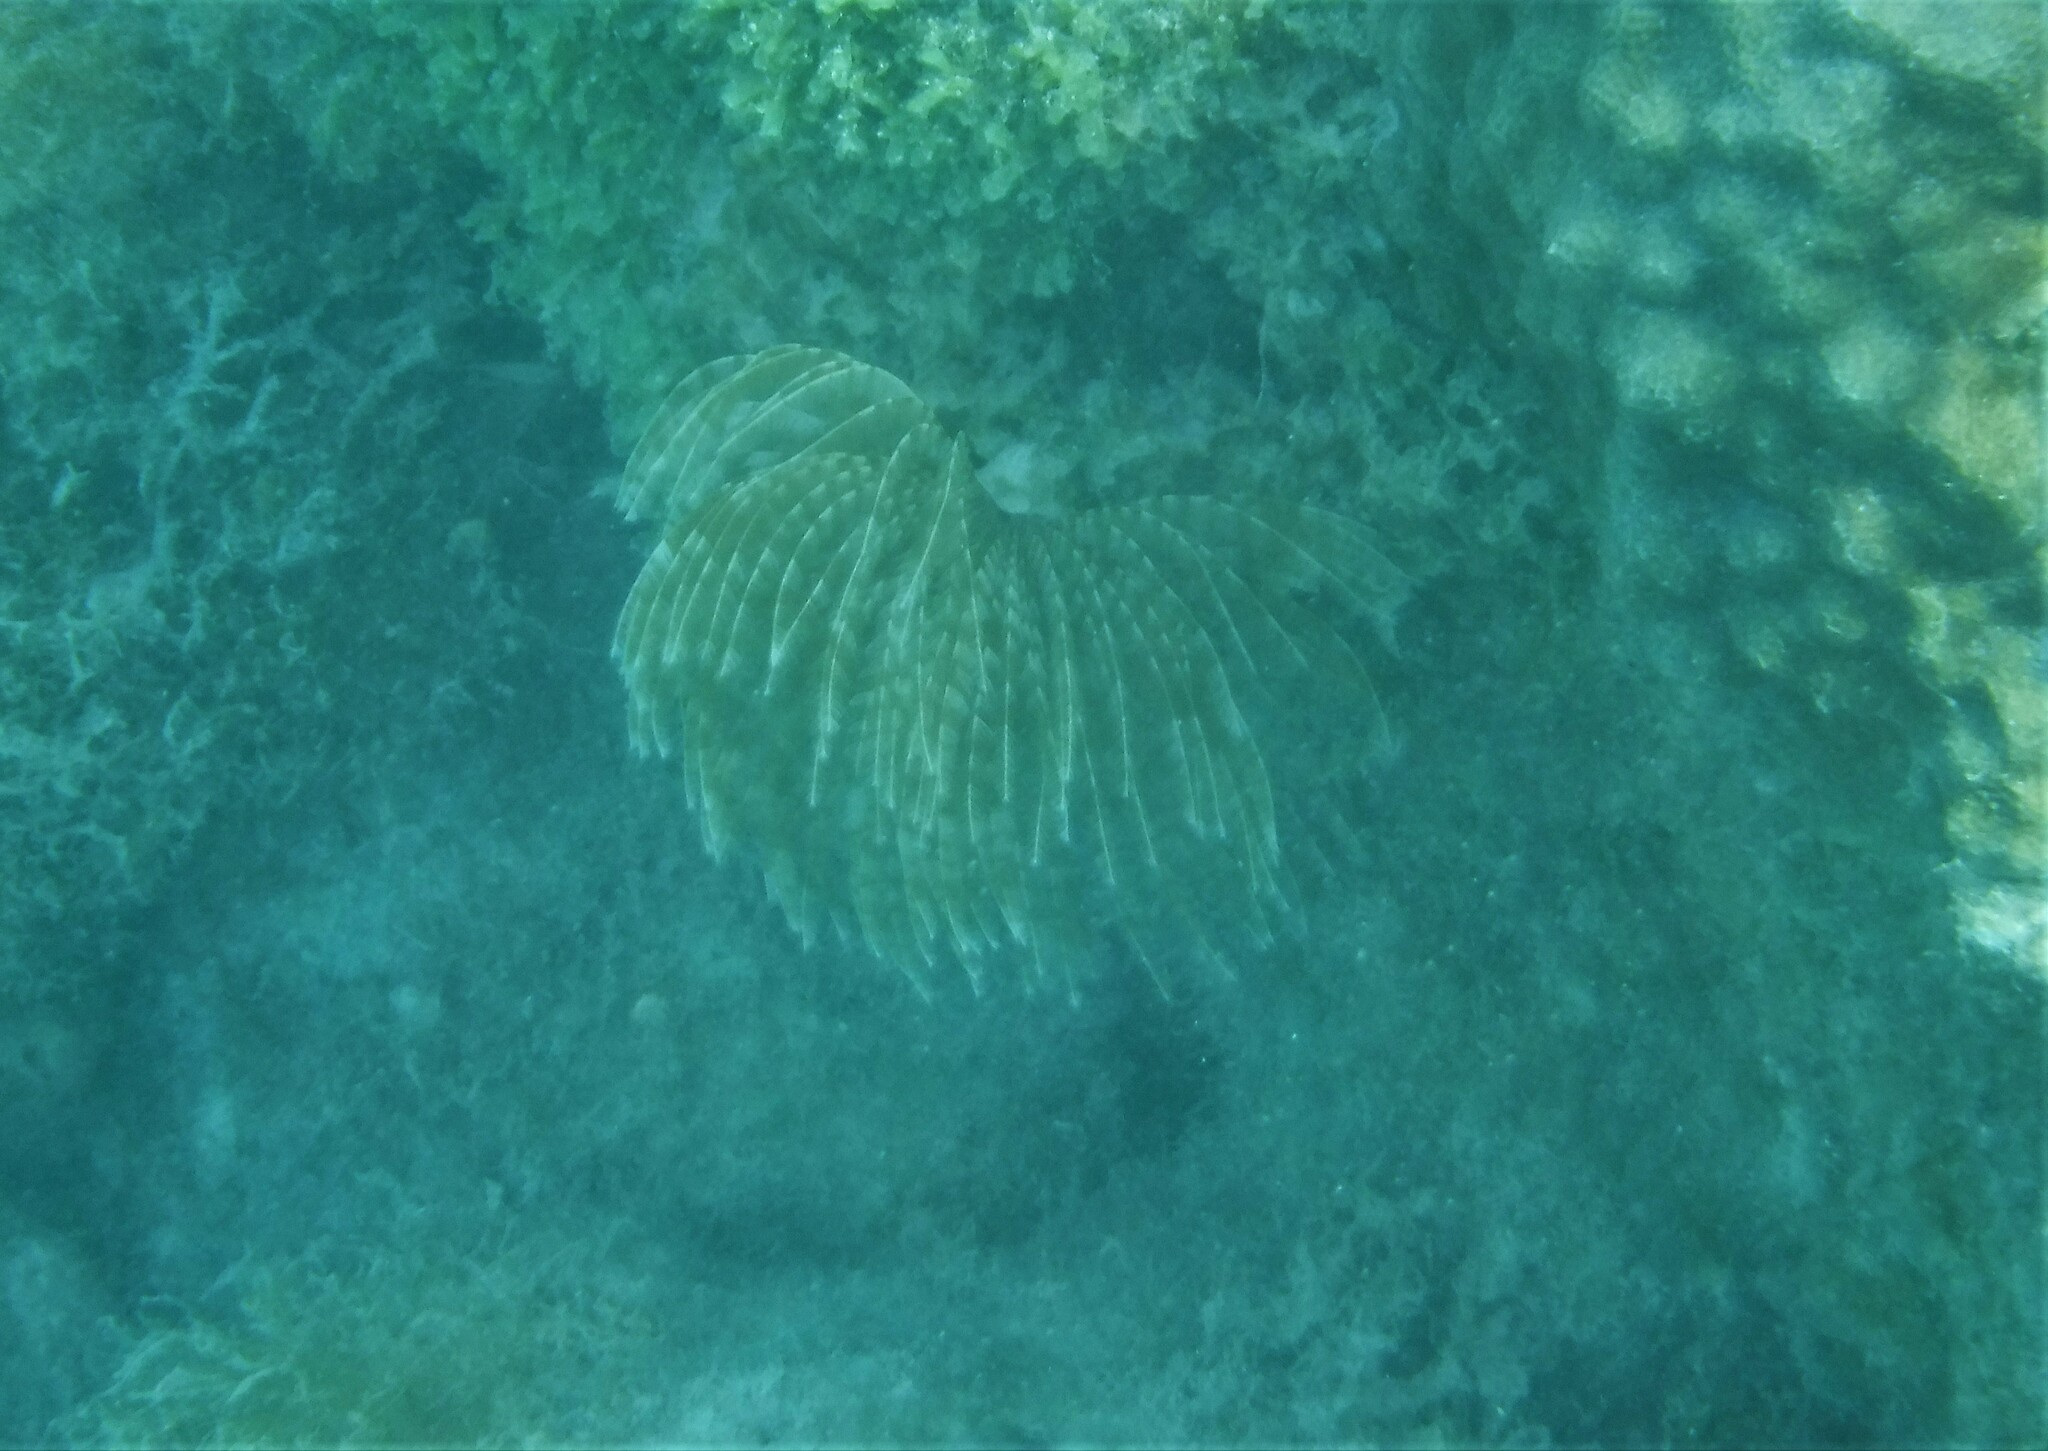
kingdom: Animalia
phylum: Annelida
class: Polychaeta
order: Sabellida
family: Sabellidae
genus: Sabellastarte
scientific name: Sabellastarte magnifica
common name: Giant feather-duster worm
